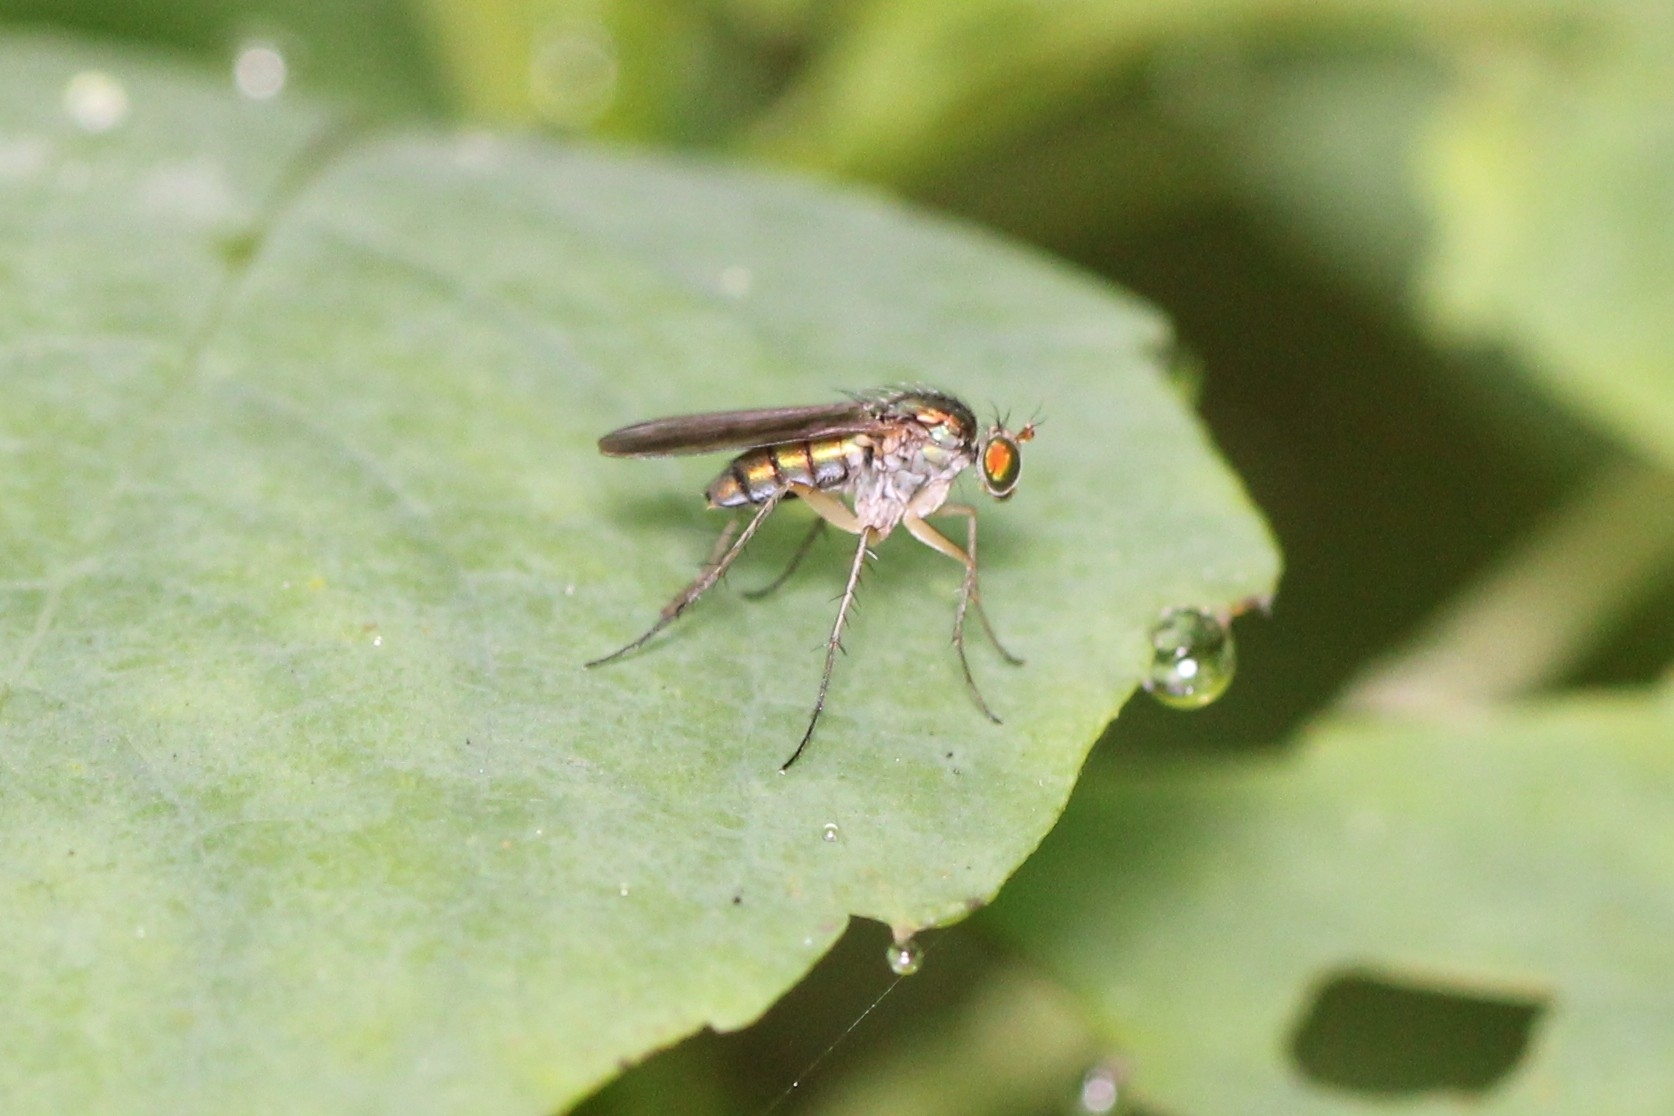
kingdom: Animalia
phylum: Arthropoda
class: Insecta
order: Diptera
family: Dolichopodidae
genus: Dolichopus
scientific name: Dolichopus
